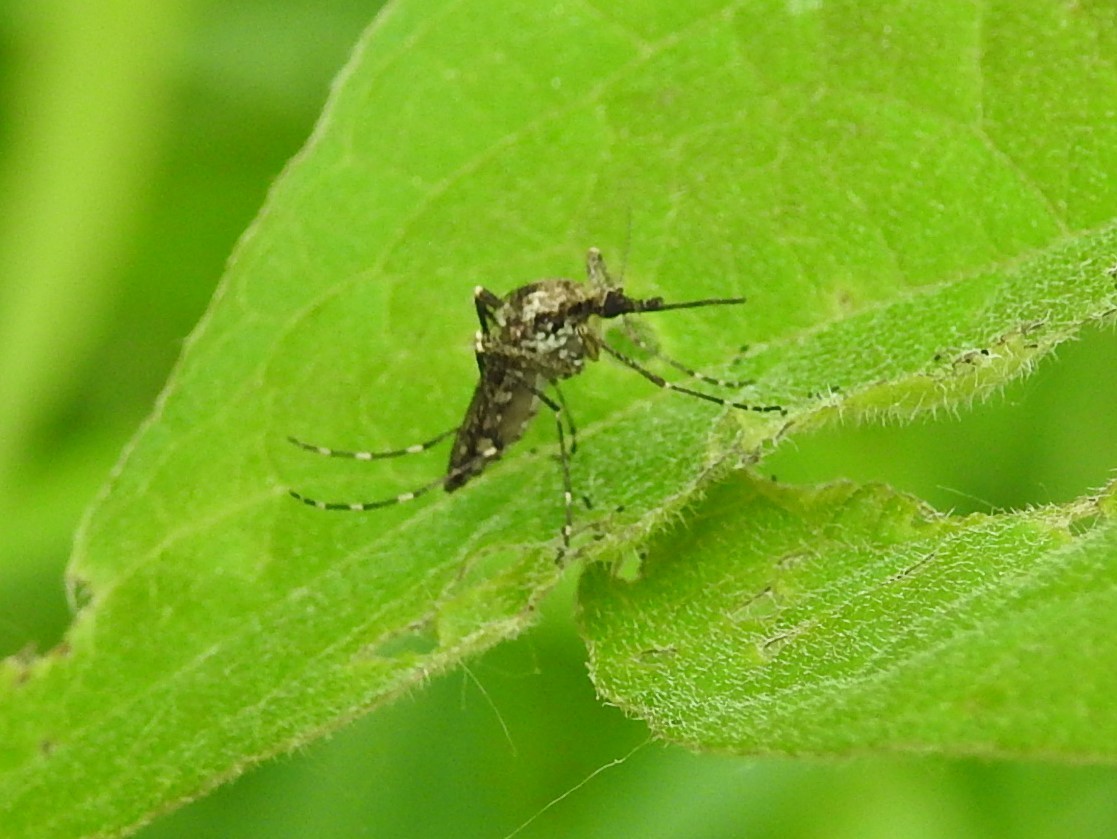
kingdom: Animalia
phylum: Arthropoda
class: Insecta
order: Diptera
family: Culicidae
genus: Aedes
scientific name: Aedes grossbecki
